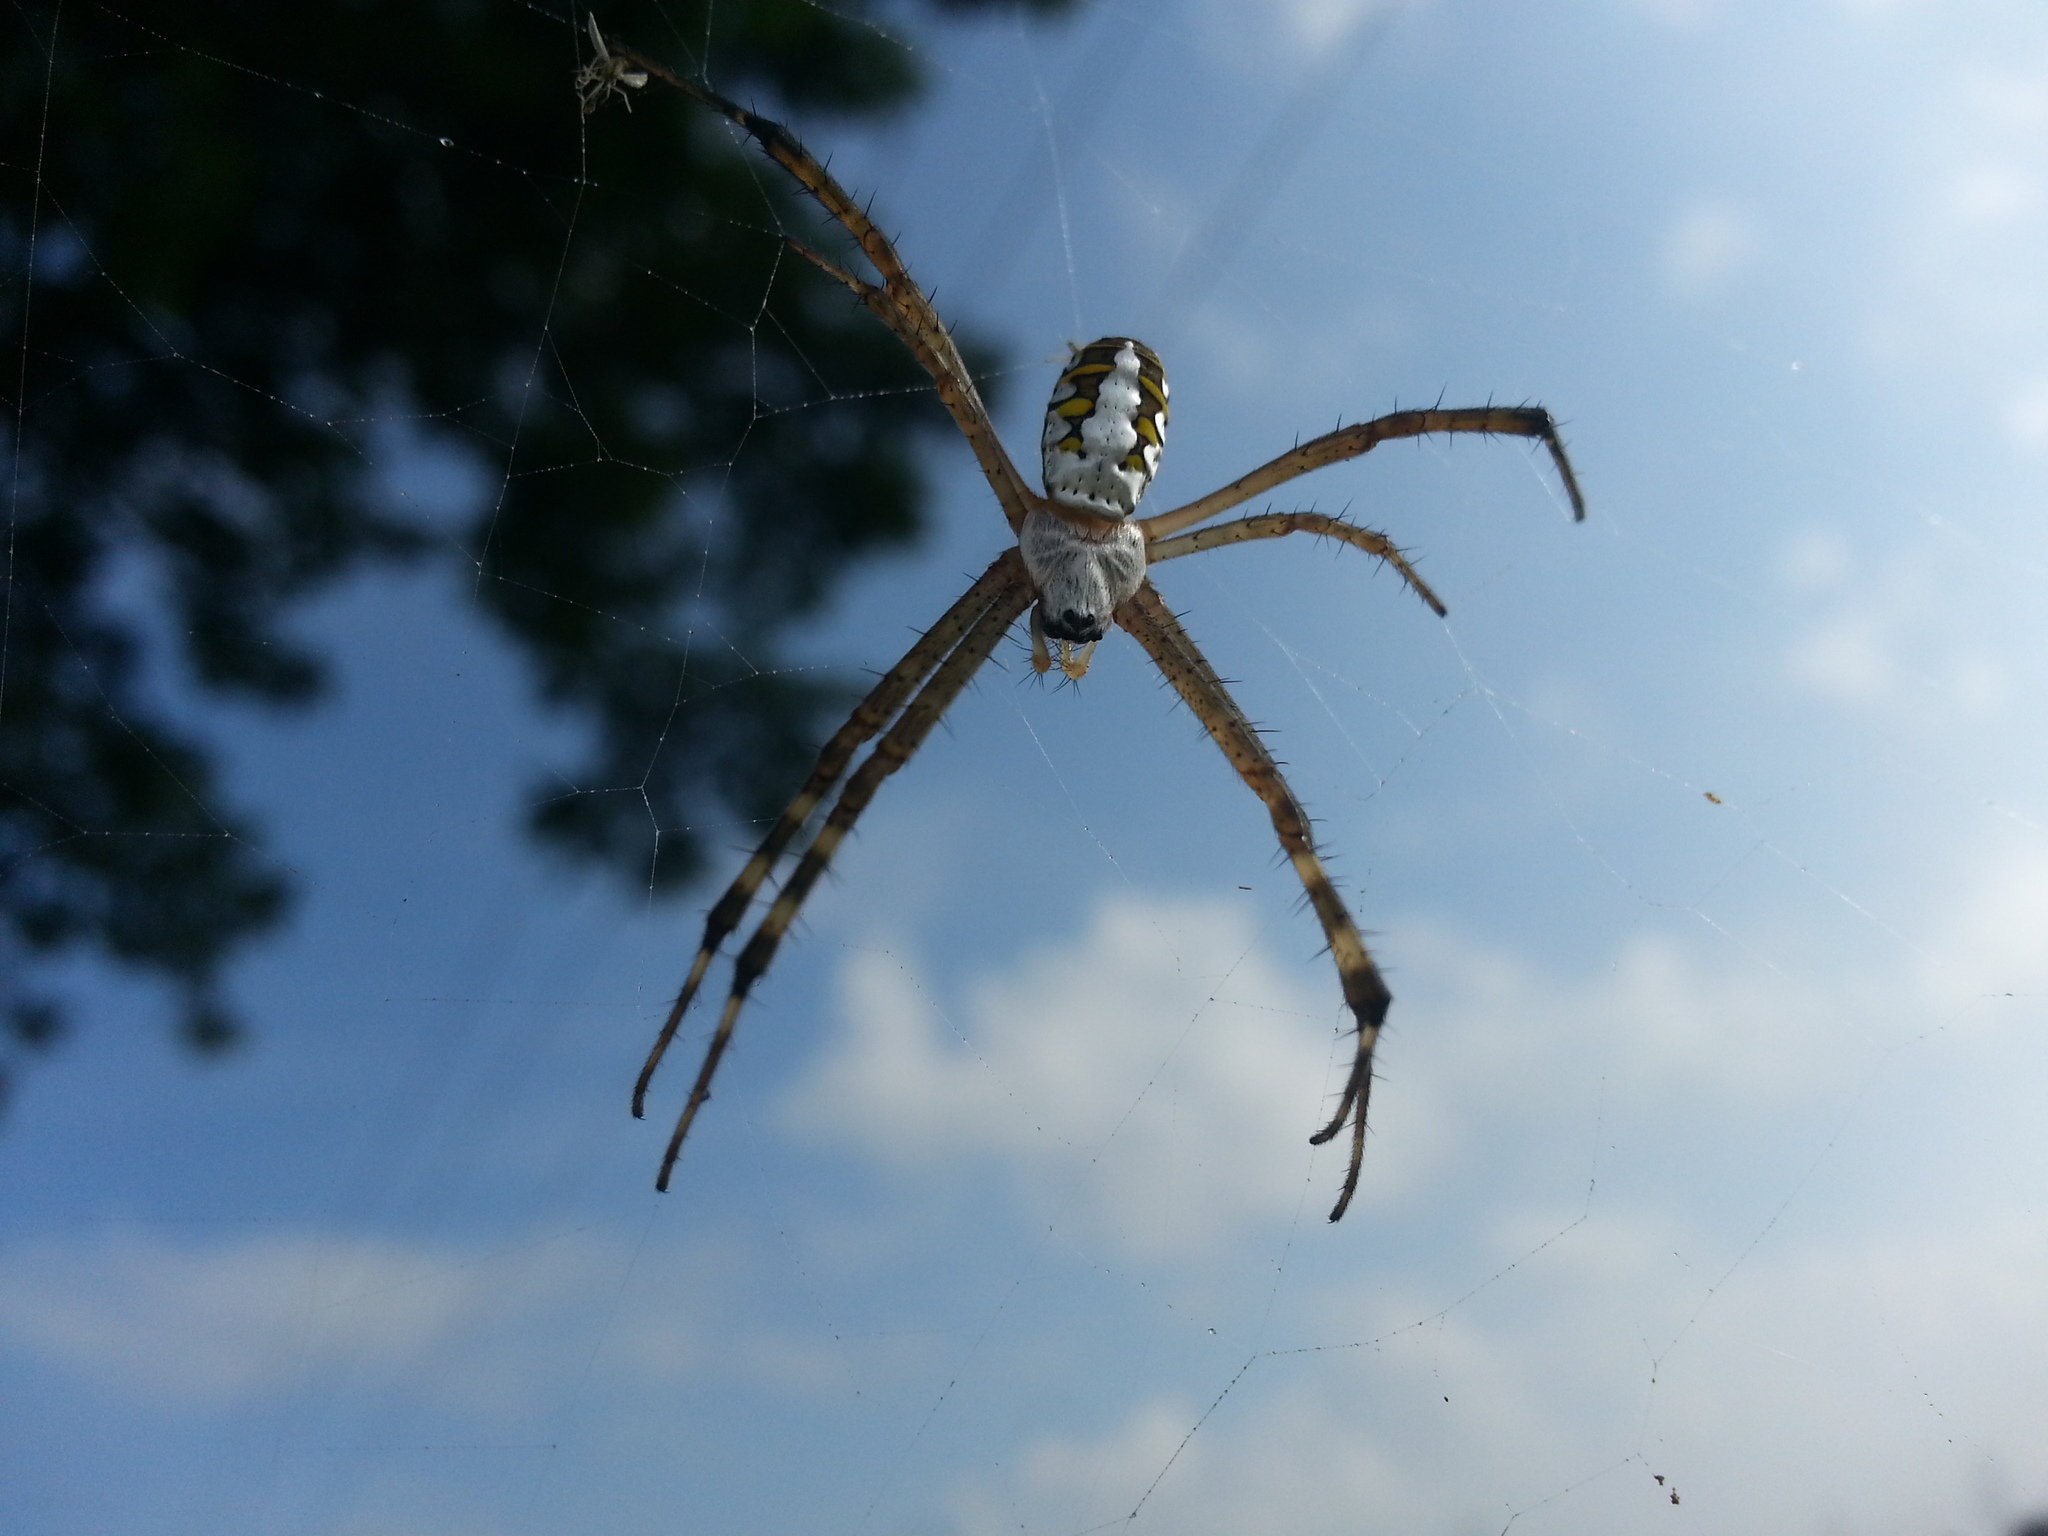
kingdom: Animalia
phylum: Arthropoda
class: Arachnida
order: Araneae
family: Araneidae
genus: Argiope
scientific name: Argiope catenulata
